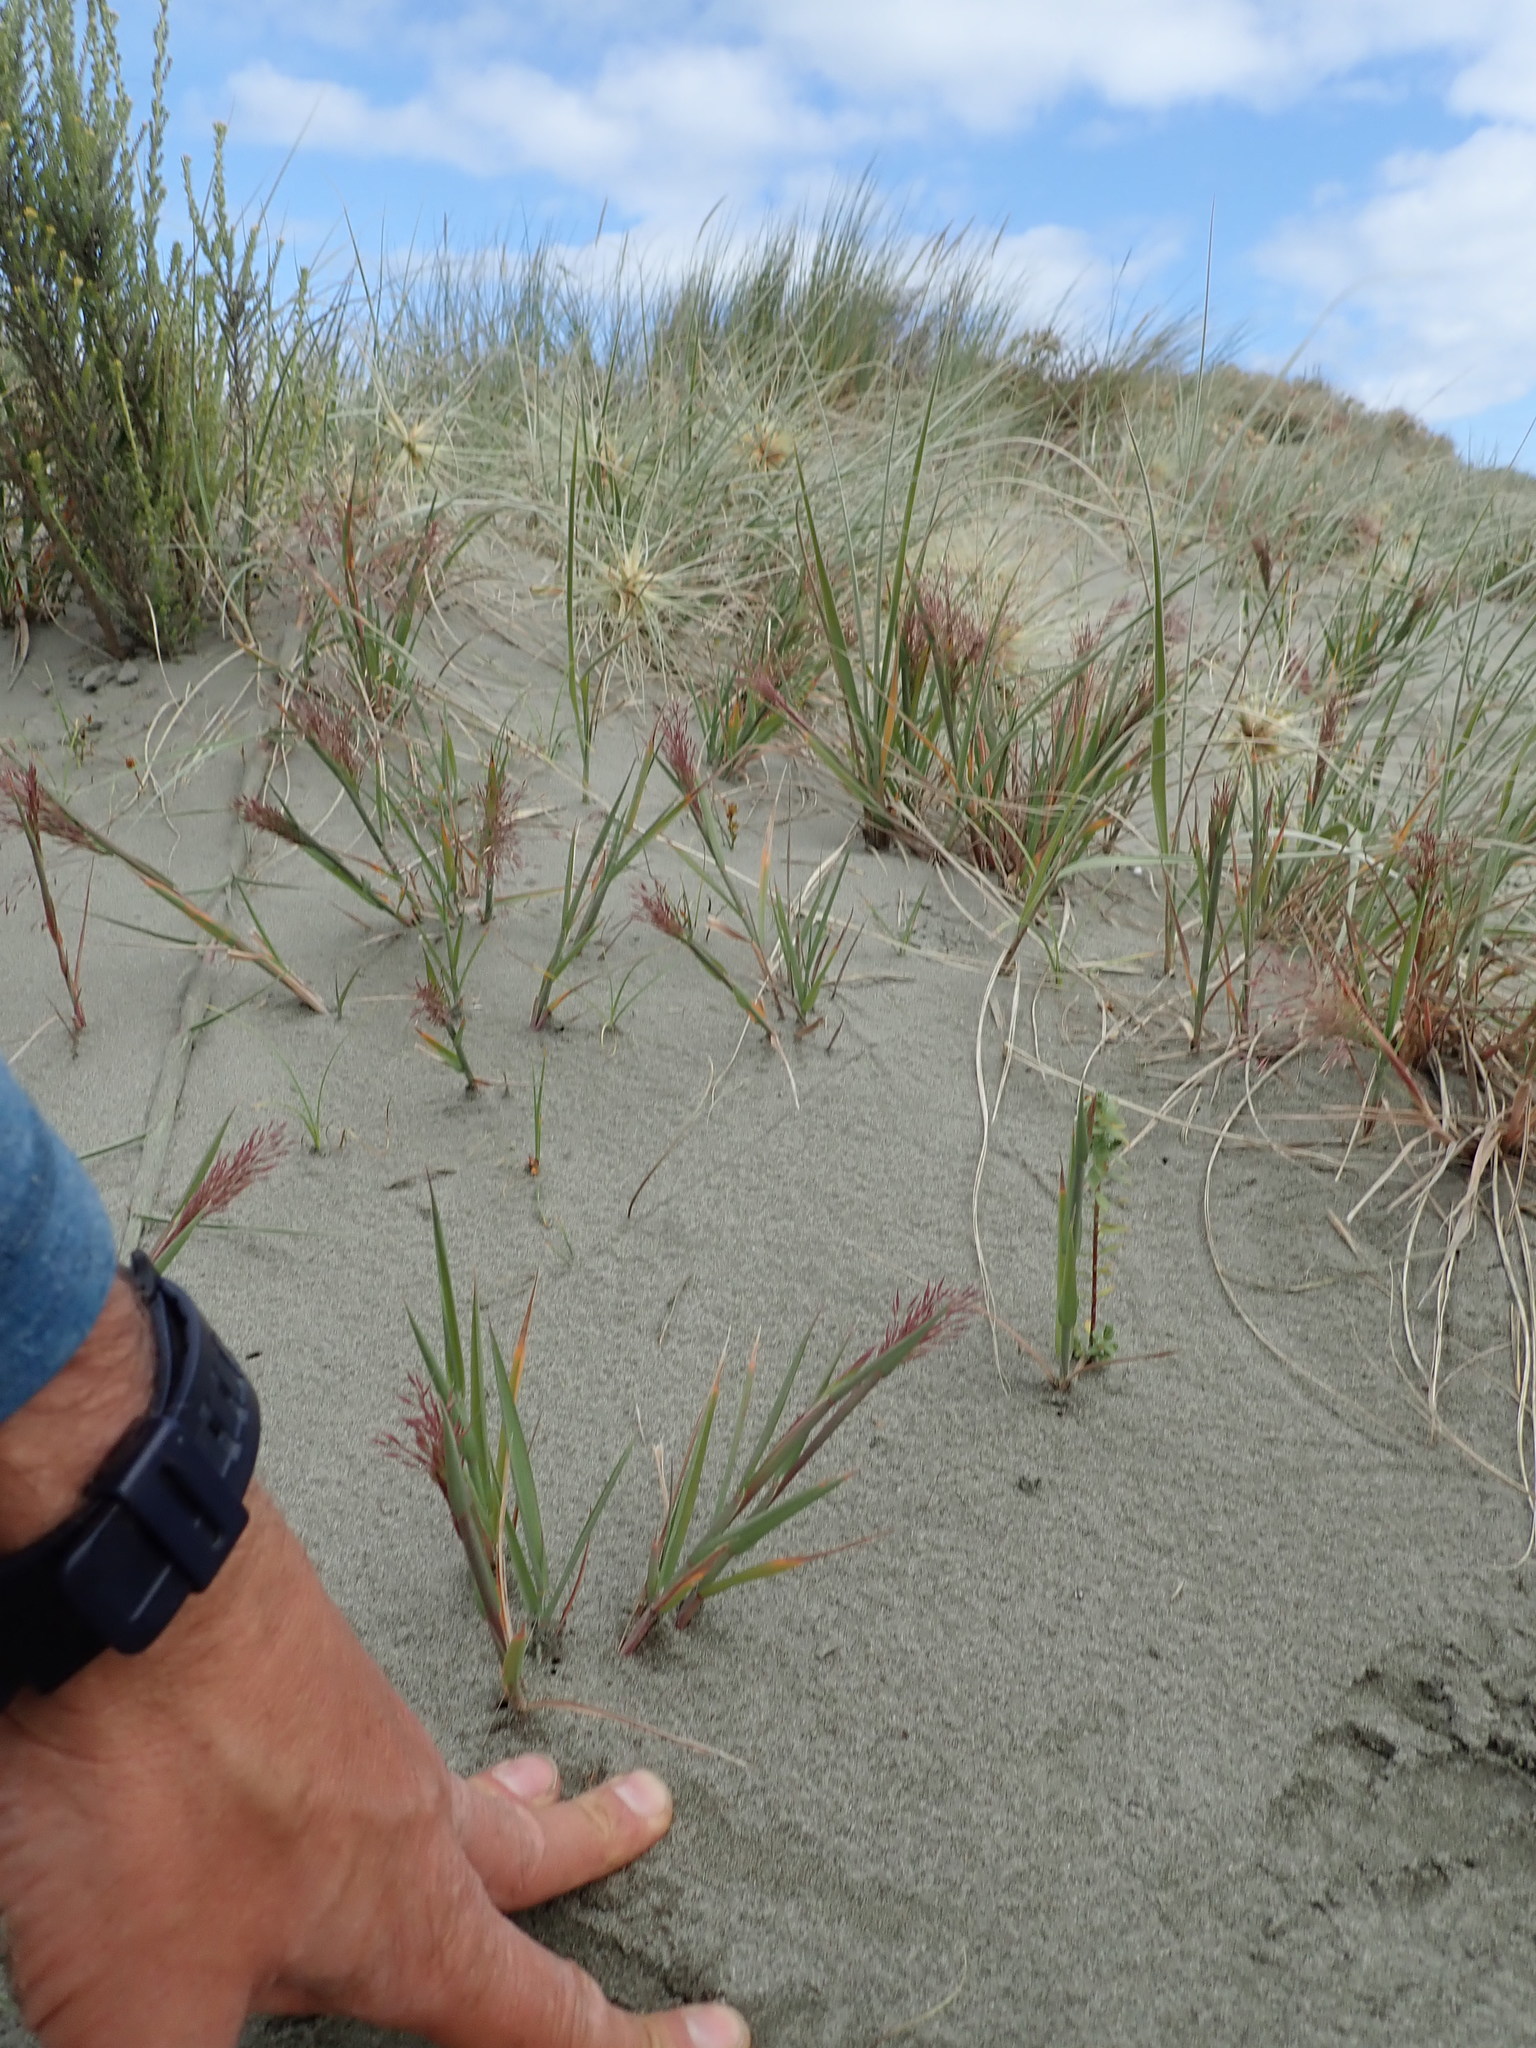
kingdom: Plantae
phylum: Tracheophyta
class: Magnoliopsida
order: Malvales
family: Thymelaeaceae
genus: Pimelea
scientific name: Pimelea villosa
